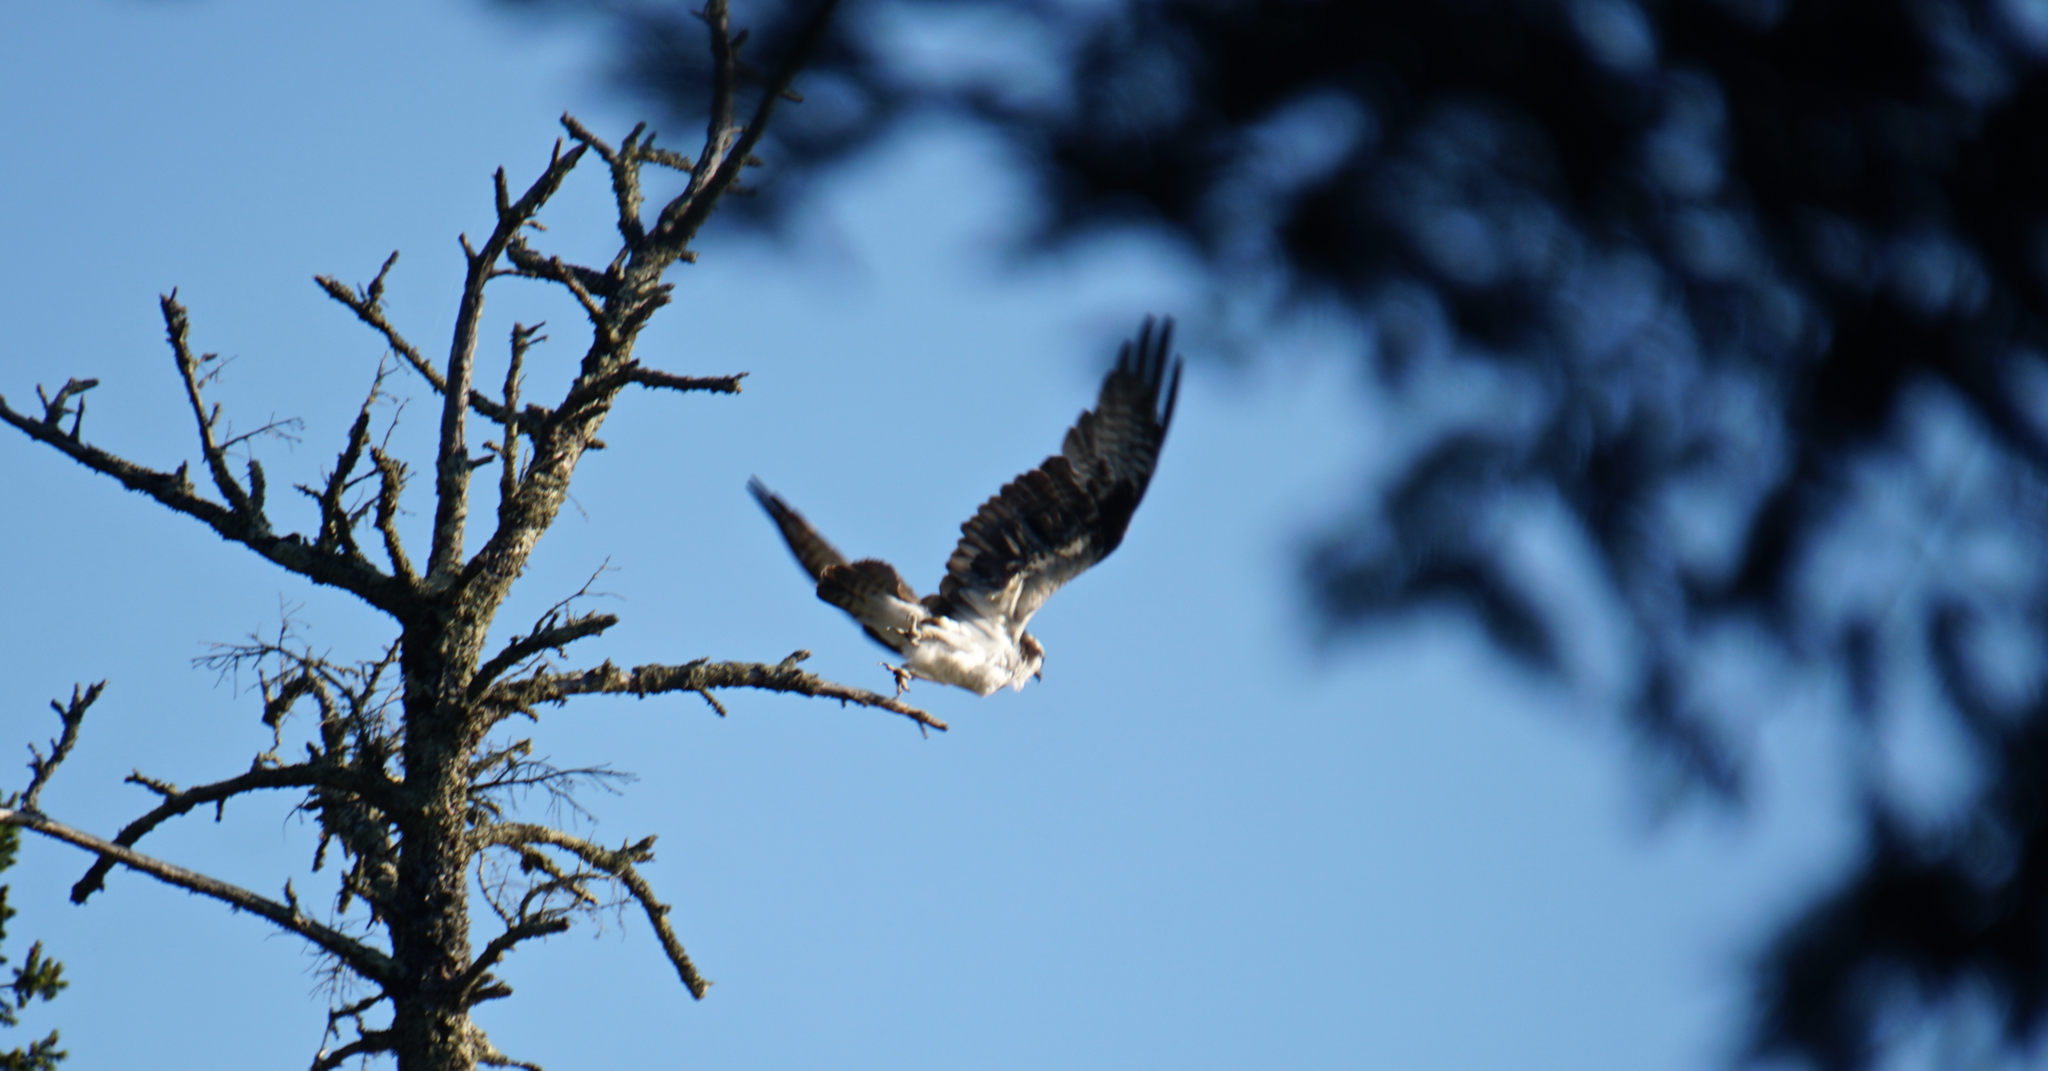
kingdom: Animalia
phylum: Chordata
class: Aves
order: Accipitriformes
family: Pandionidae
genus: Pandion
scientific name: Pandion haliaetus
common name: Osprey
